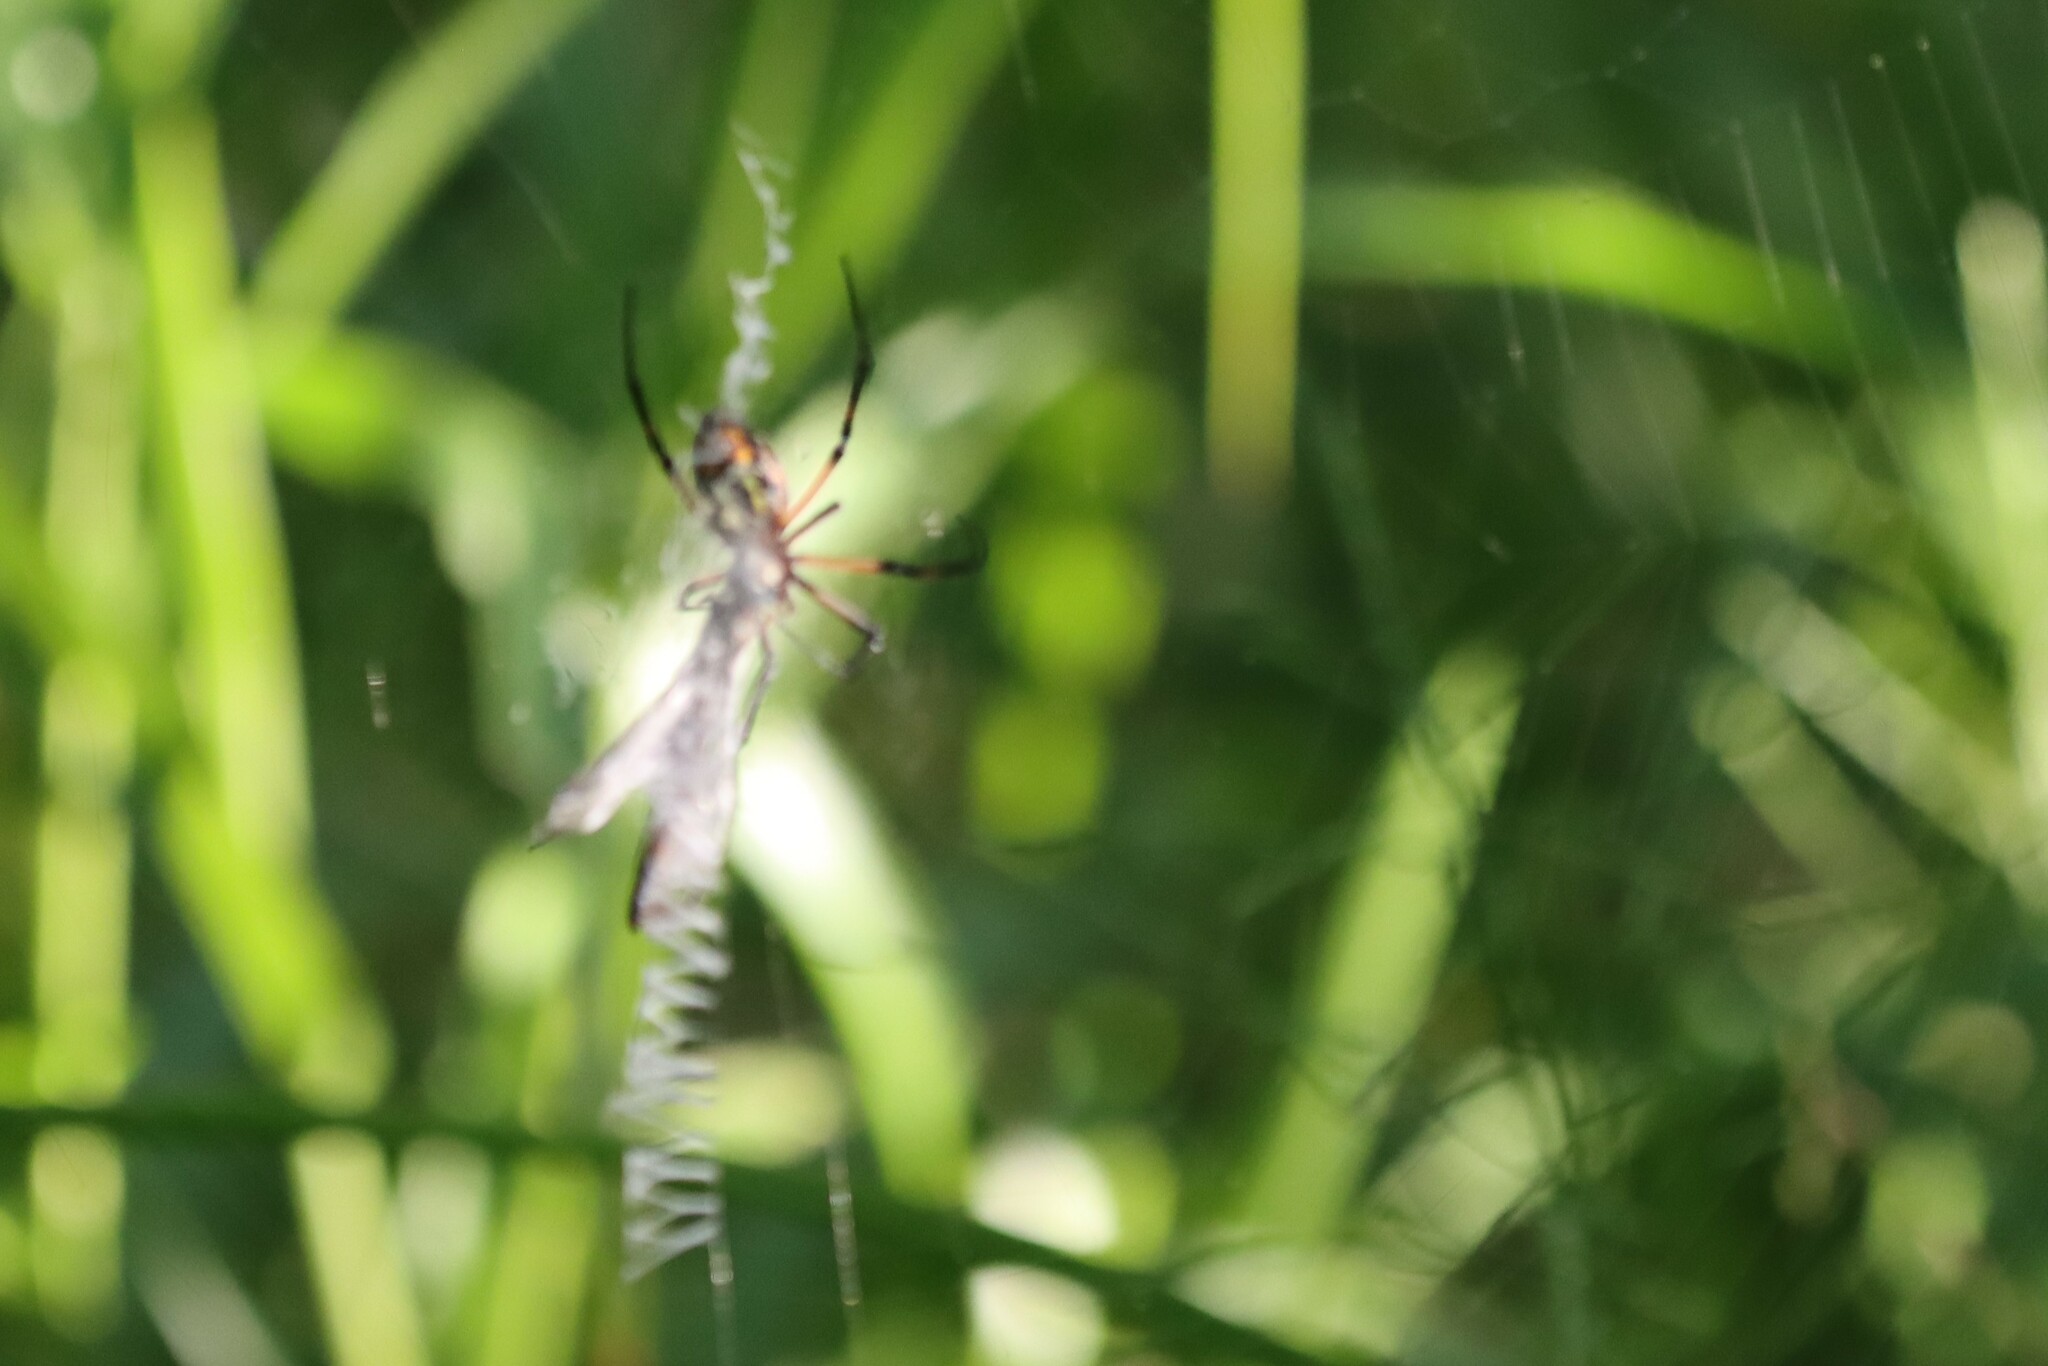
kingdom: Animalia
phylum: Arthropoda
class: Arachnida
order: Araneae
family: Araneidae
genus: Argiope
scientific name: Argiope aurantia
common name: Orb weavers
